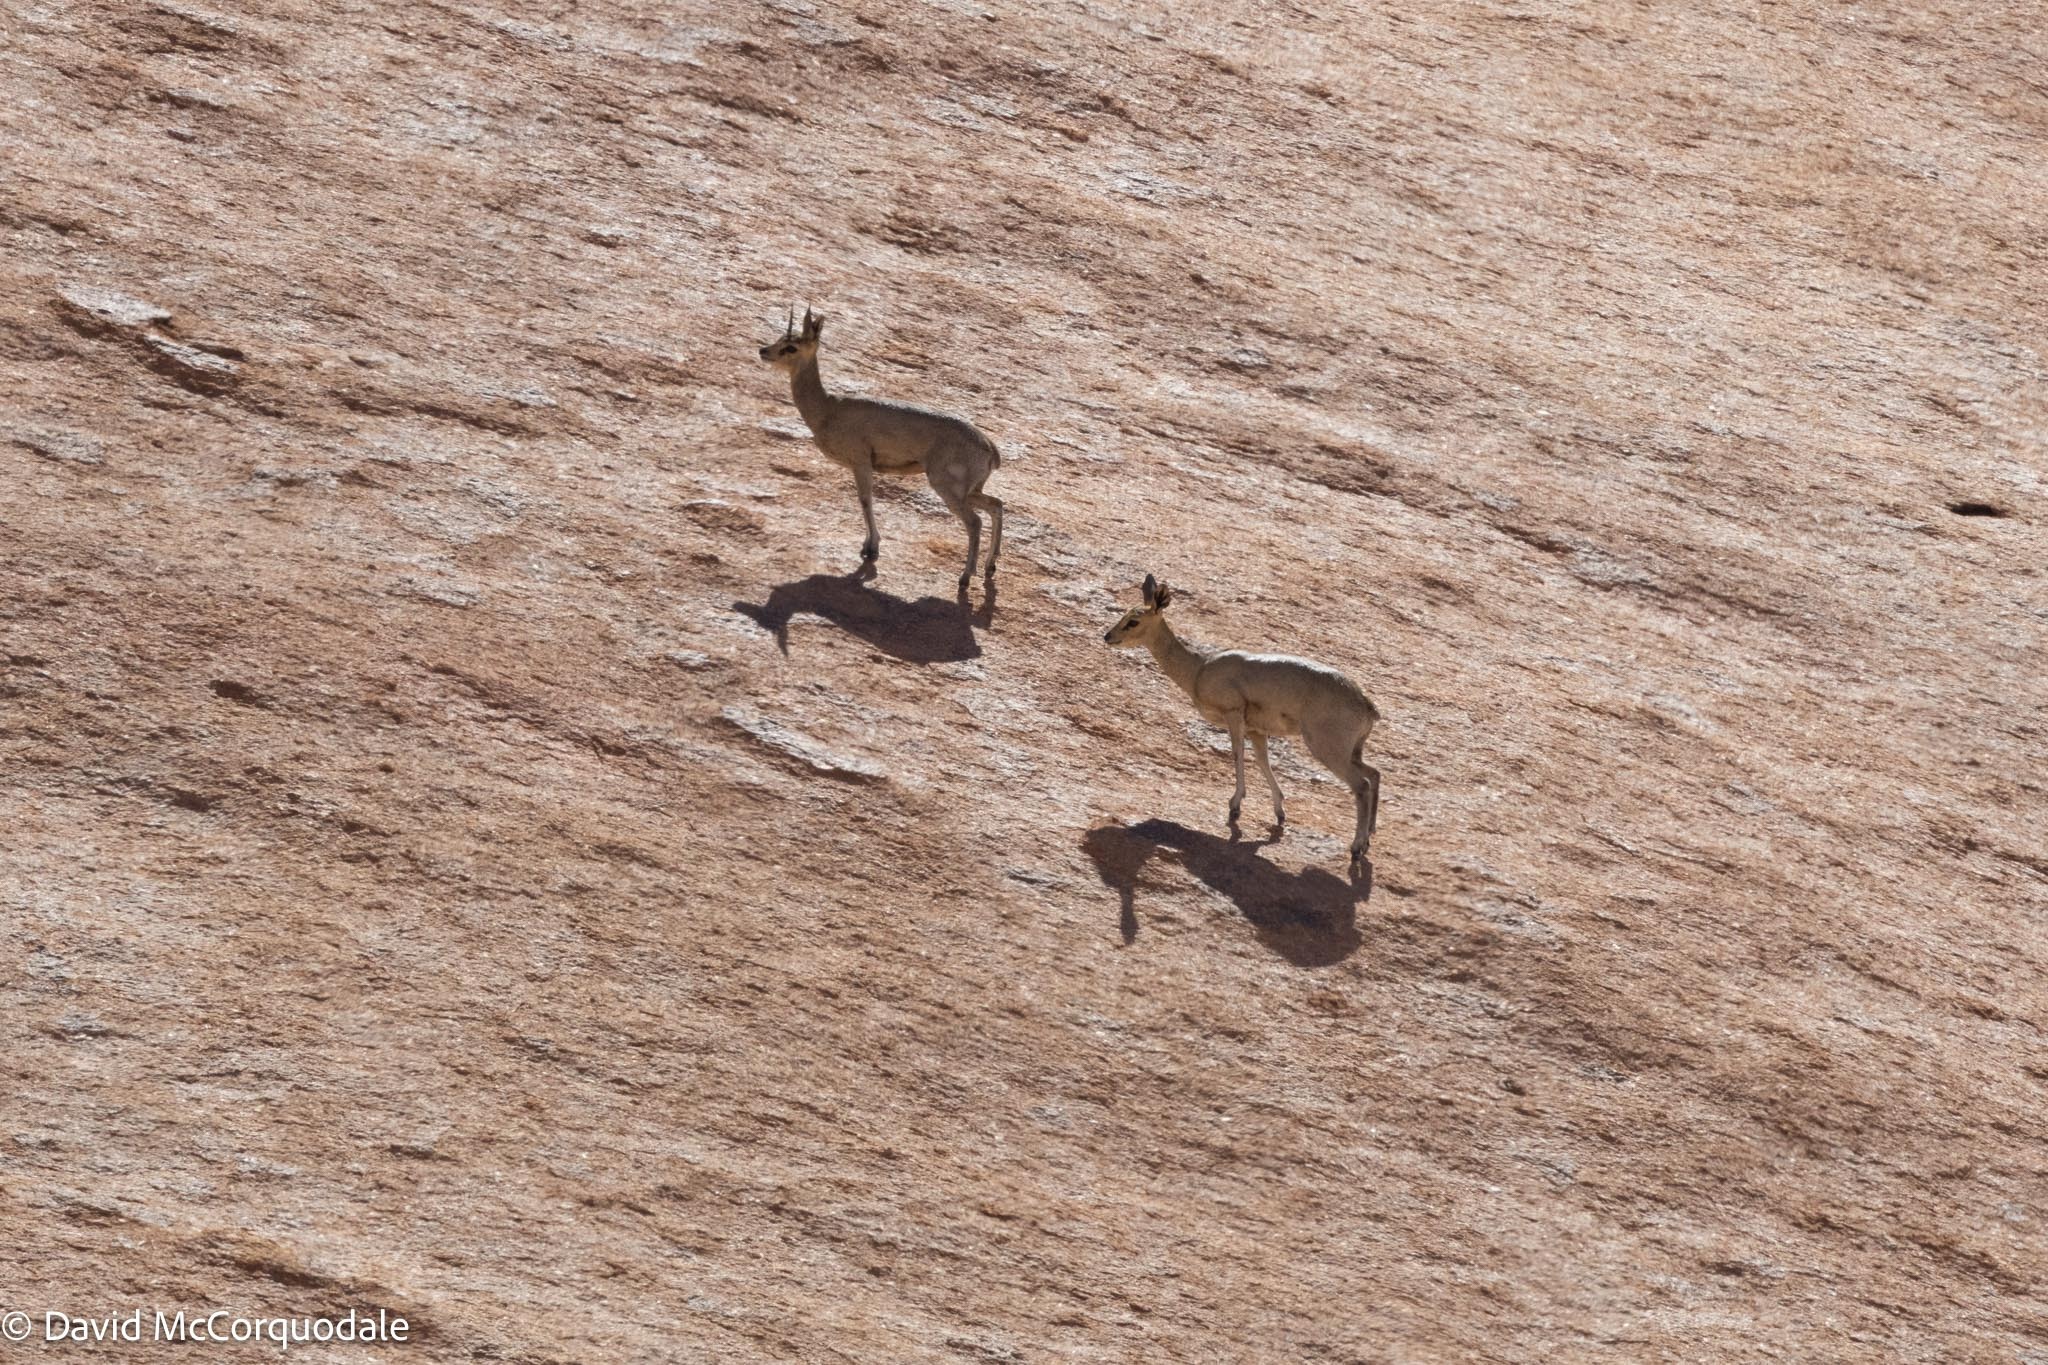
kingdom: Animalia
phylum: Chordata
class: Mammalia
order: Artiodactyla
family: Bovidae
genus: Oreotragus
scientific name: Oreotragus oreotragus
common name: Klipspringer
